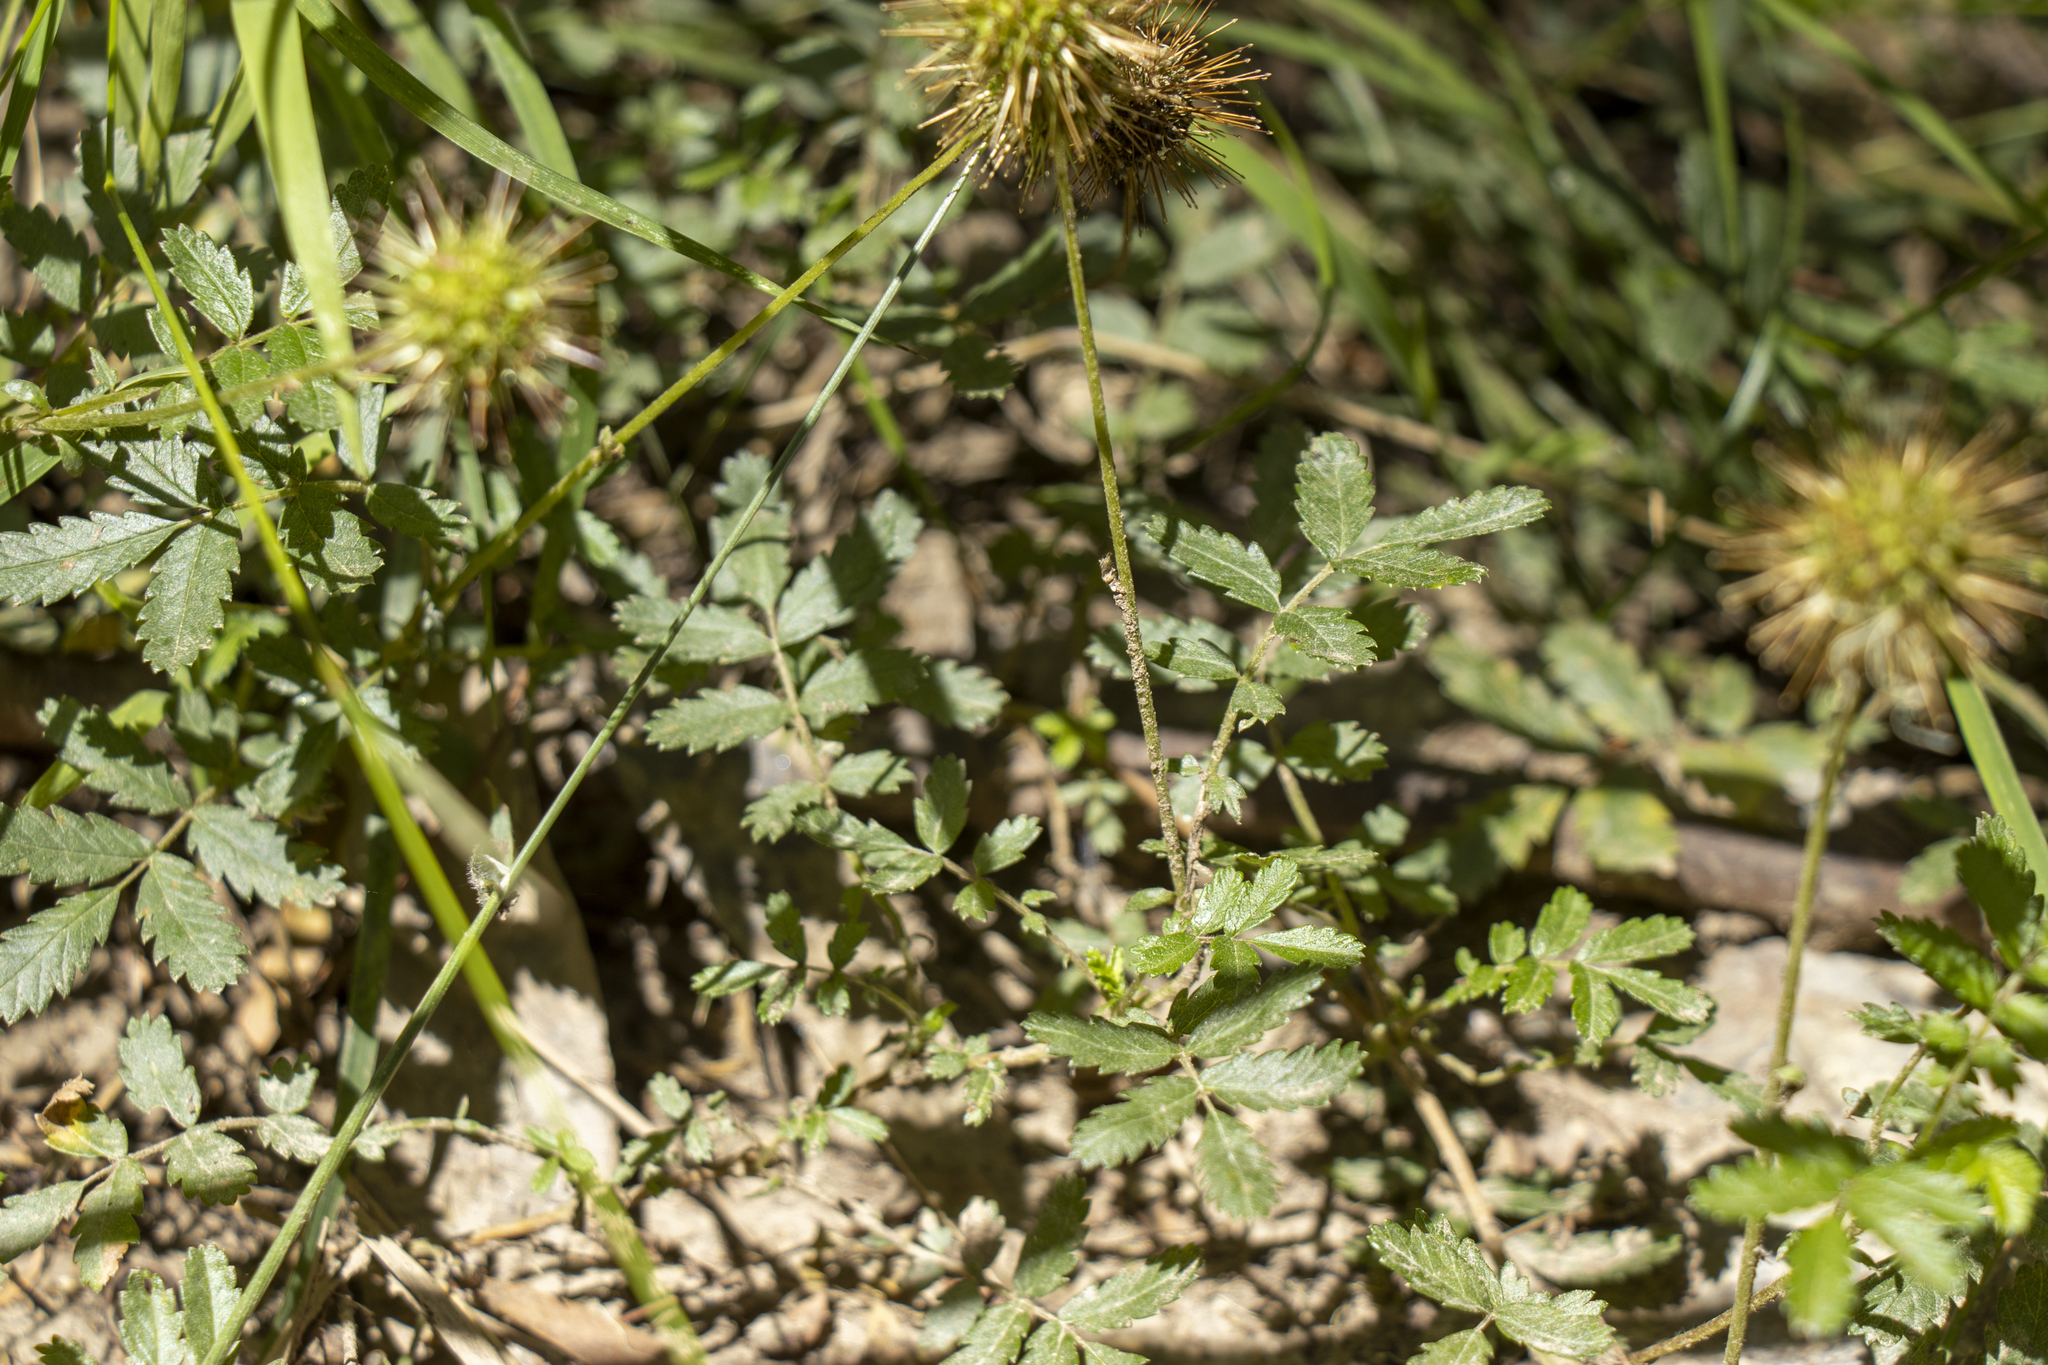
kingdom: Plantae
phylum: Tracheophyta
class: Magnoliopsida
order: Rosales
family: Rosaceae
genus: Acaena
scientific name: Acaena novae-zelandiae
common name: Pirri-pirri-bur
